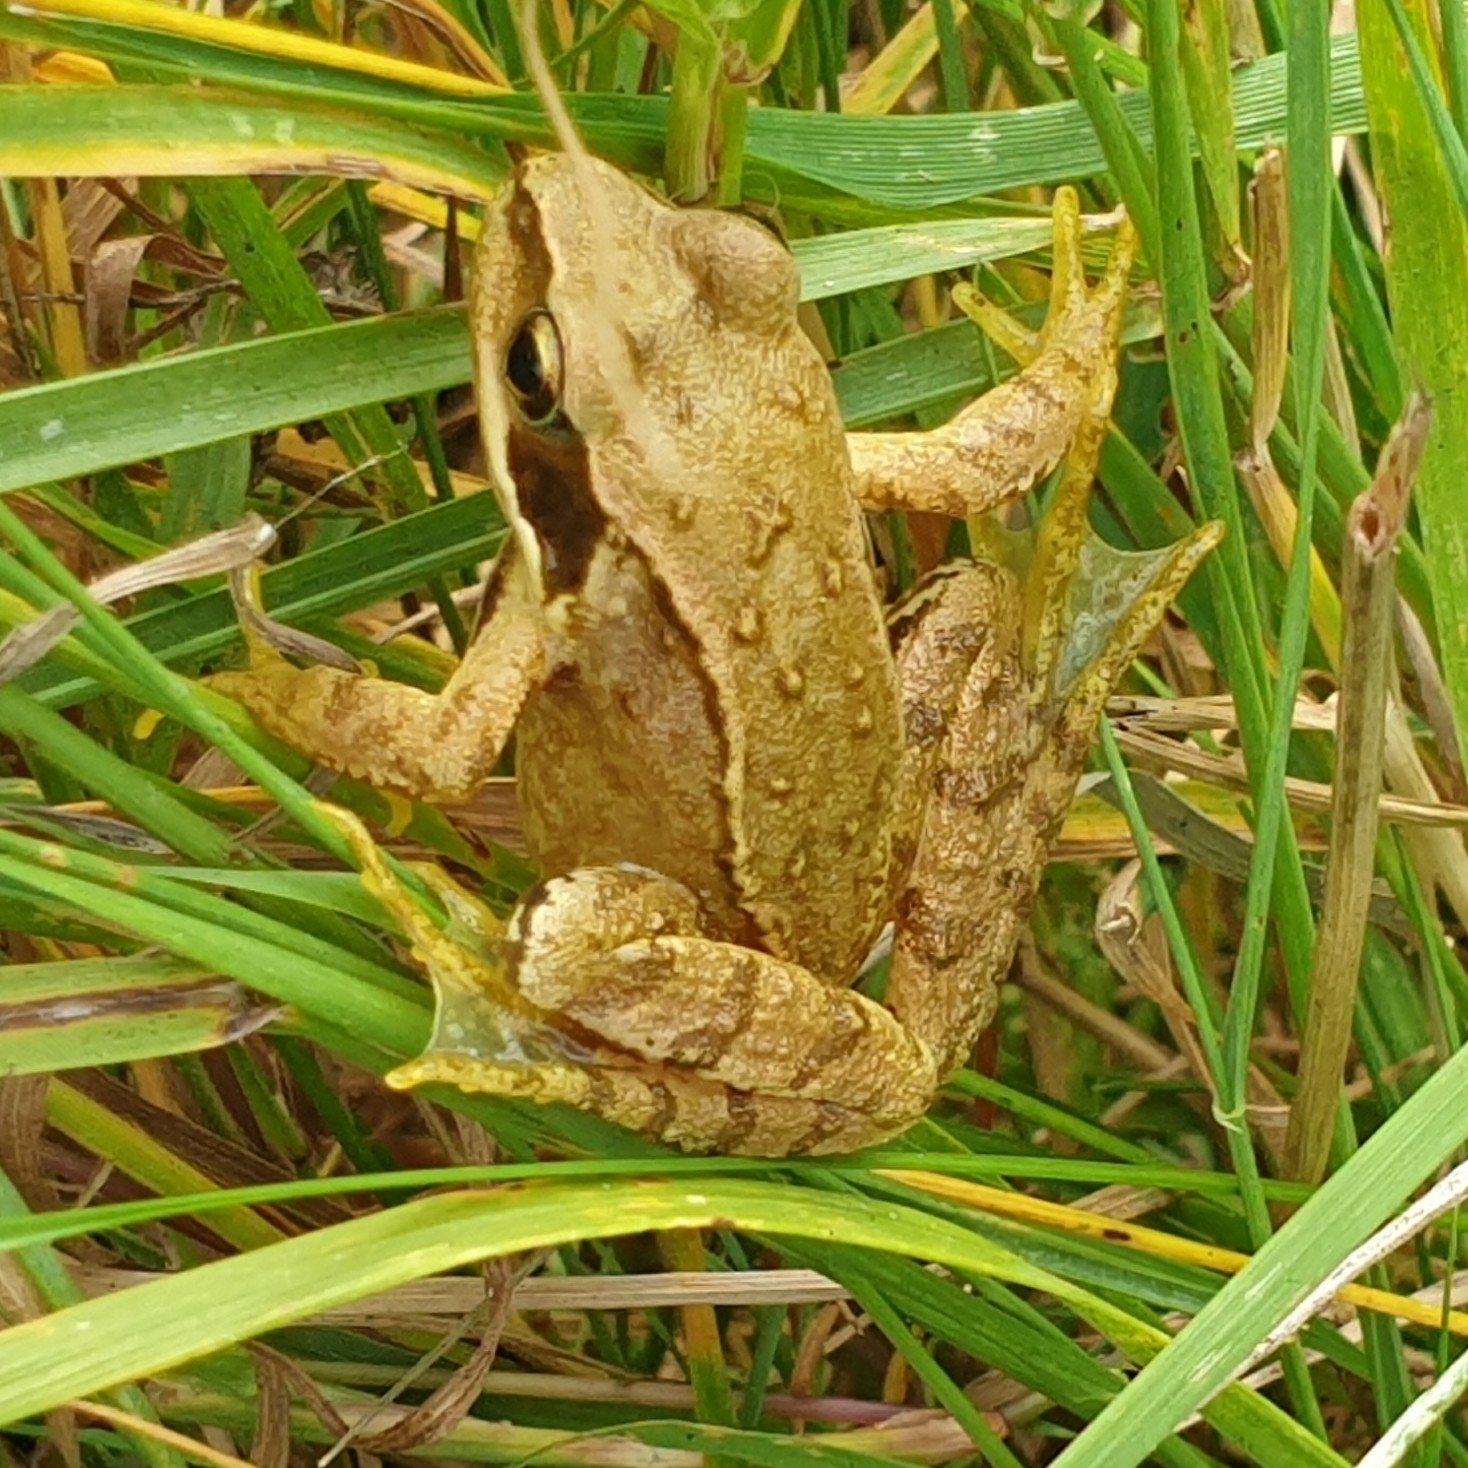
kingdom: Animalia
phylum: Chordata
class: Amphibia
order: Anura
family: Ranidae
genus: Rana
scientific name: Rana temporaria
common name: Common frog
